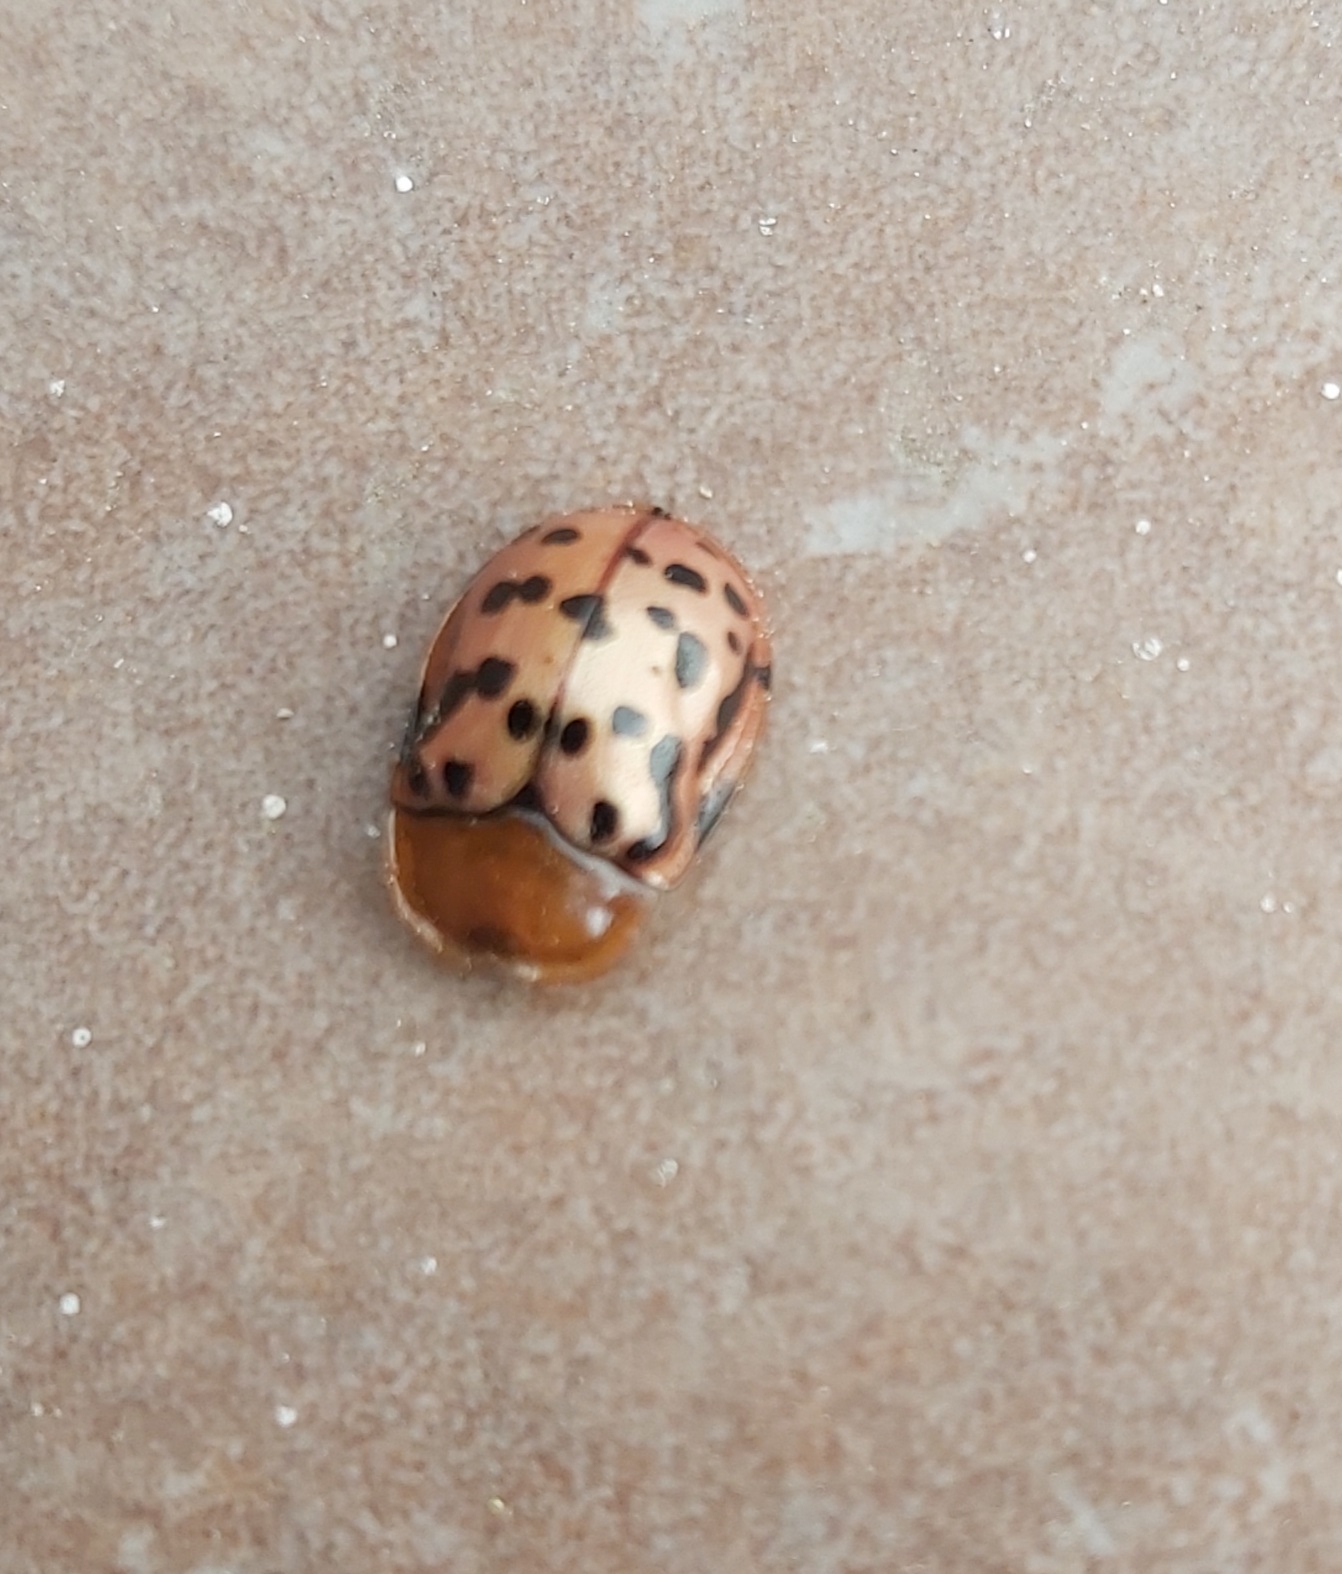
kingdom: Animalia
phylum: Arthropoda
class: Insecta
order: Coleoptera
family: Chrysomelidae
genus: Conchyloctenia
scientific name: Conchyloctenia punctata
